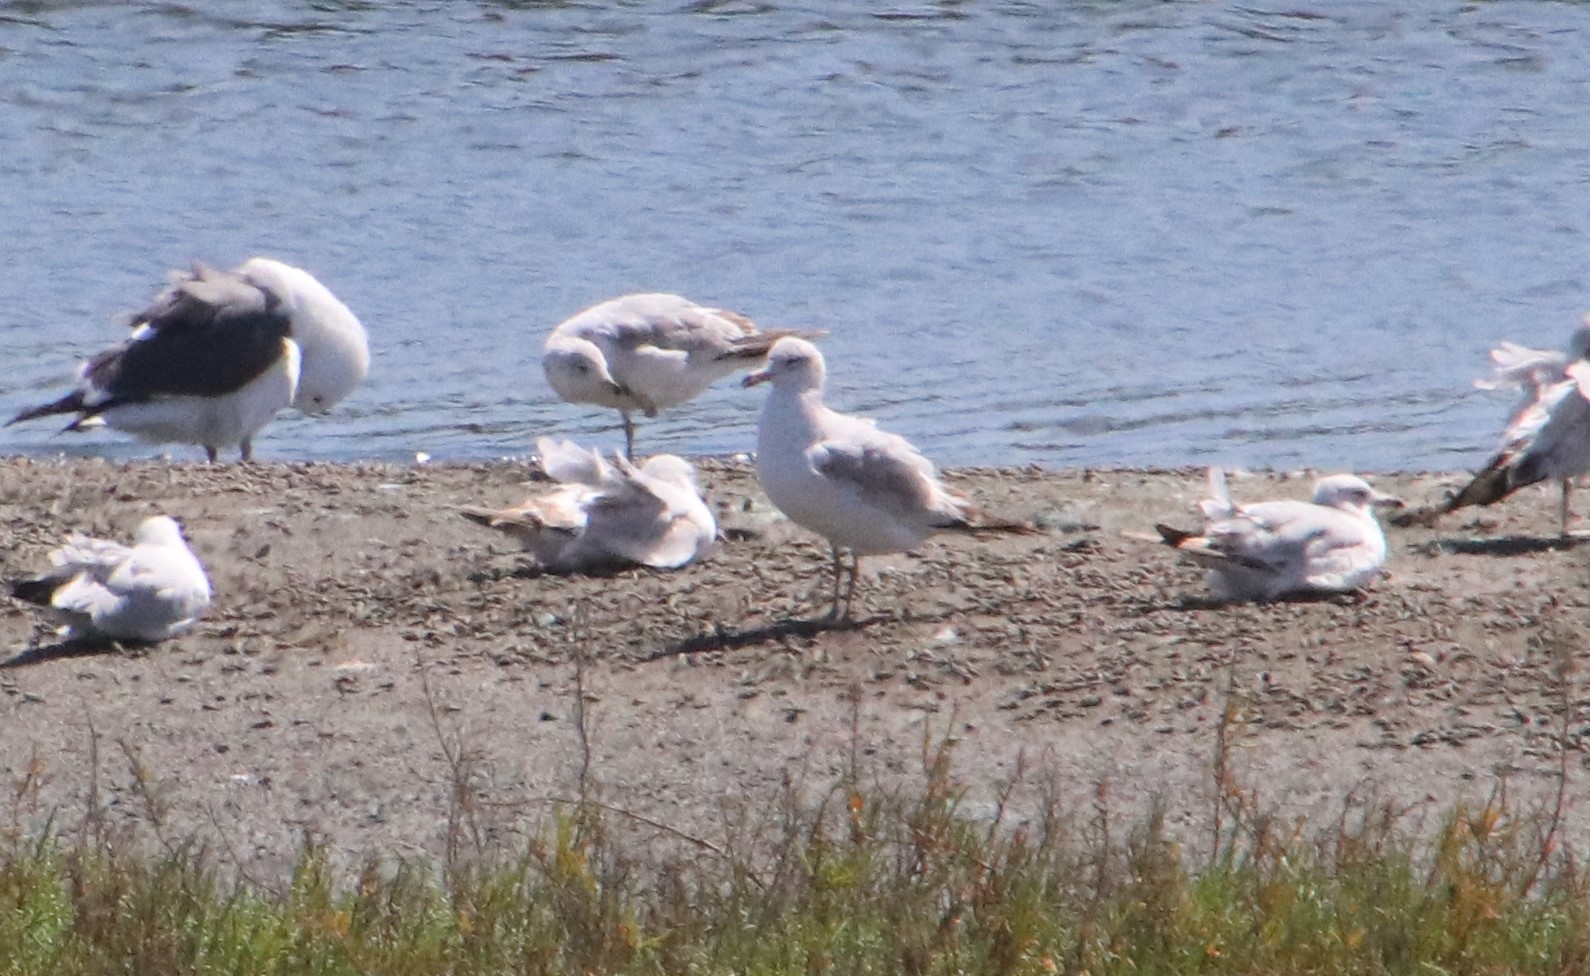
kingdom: Animalia
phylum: Chordata
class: Aves
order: Charadriiformes
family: Laridae
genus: Larus
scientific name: Larus delawarensis
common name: Ring-billed gull
